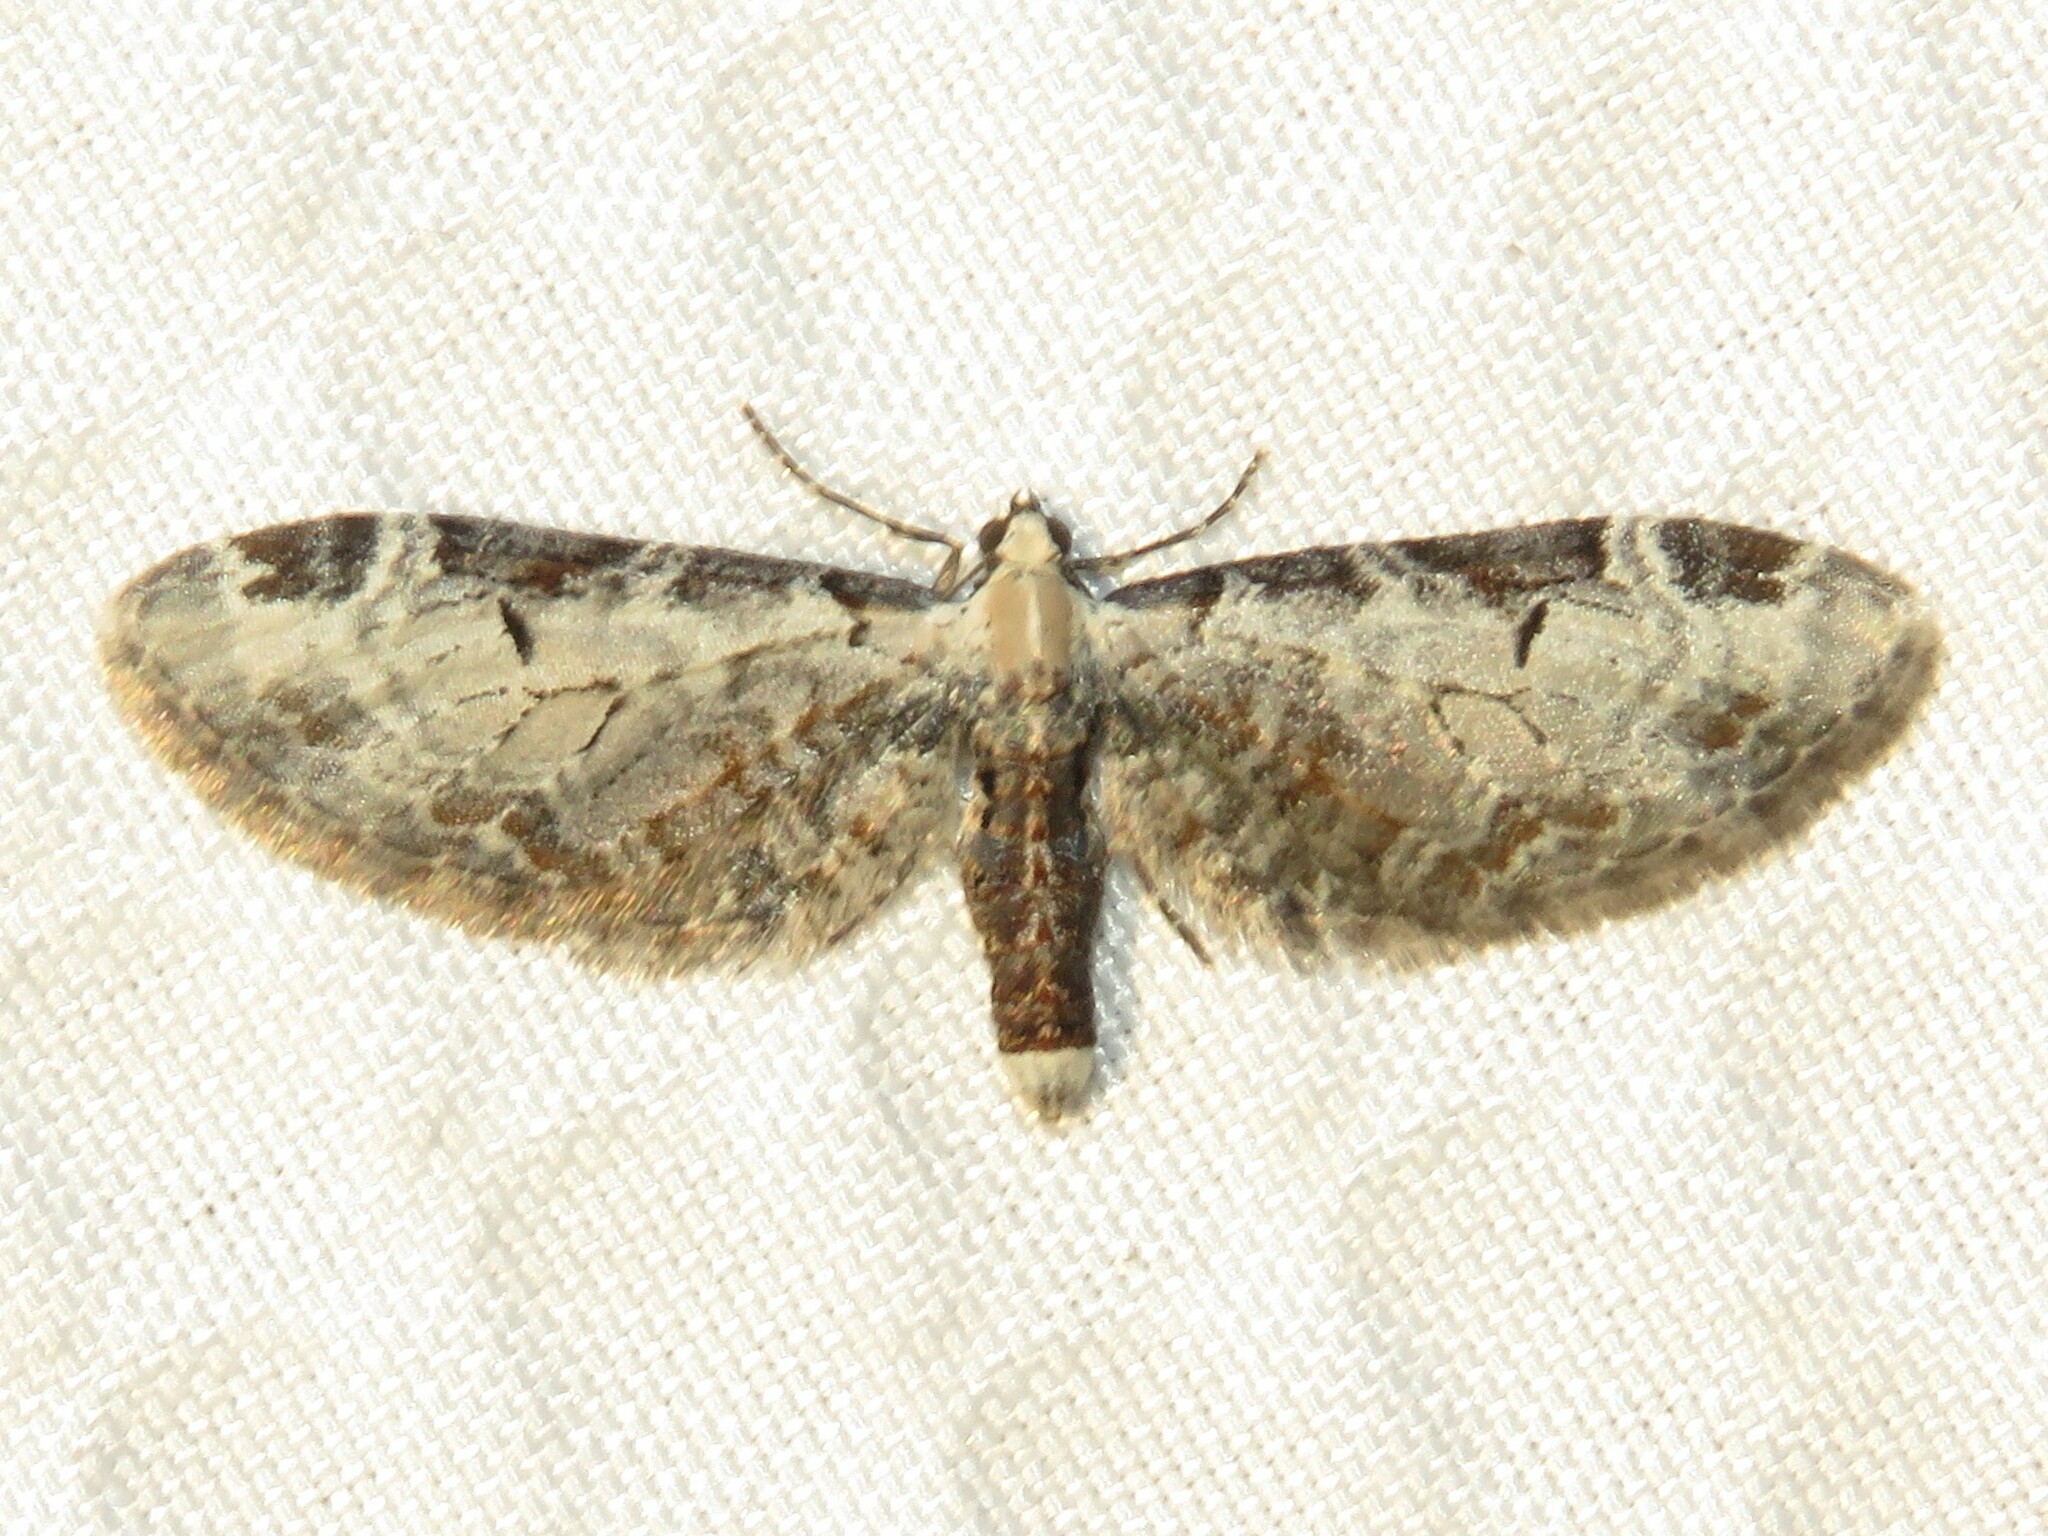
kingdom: Animalia
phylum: Arthropoda
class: Insecta
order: Lepidoptera
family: Geometridae
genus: Eupithecia
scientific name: Eupithecia ravocostaliata
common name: Great varigated pug
